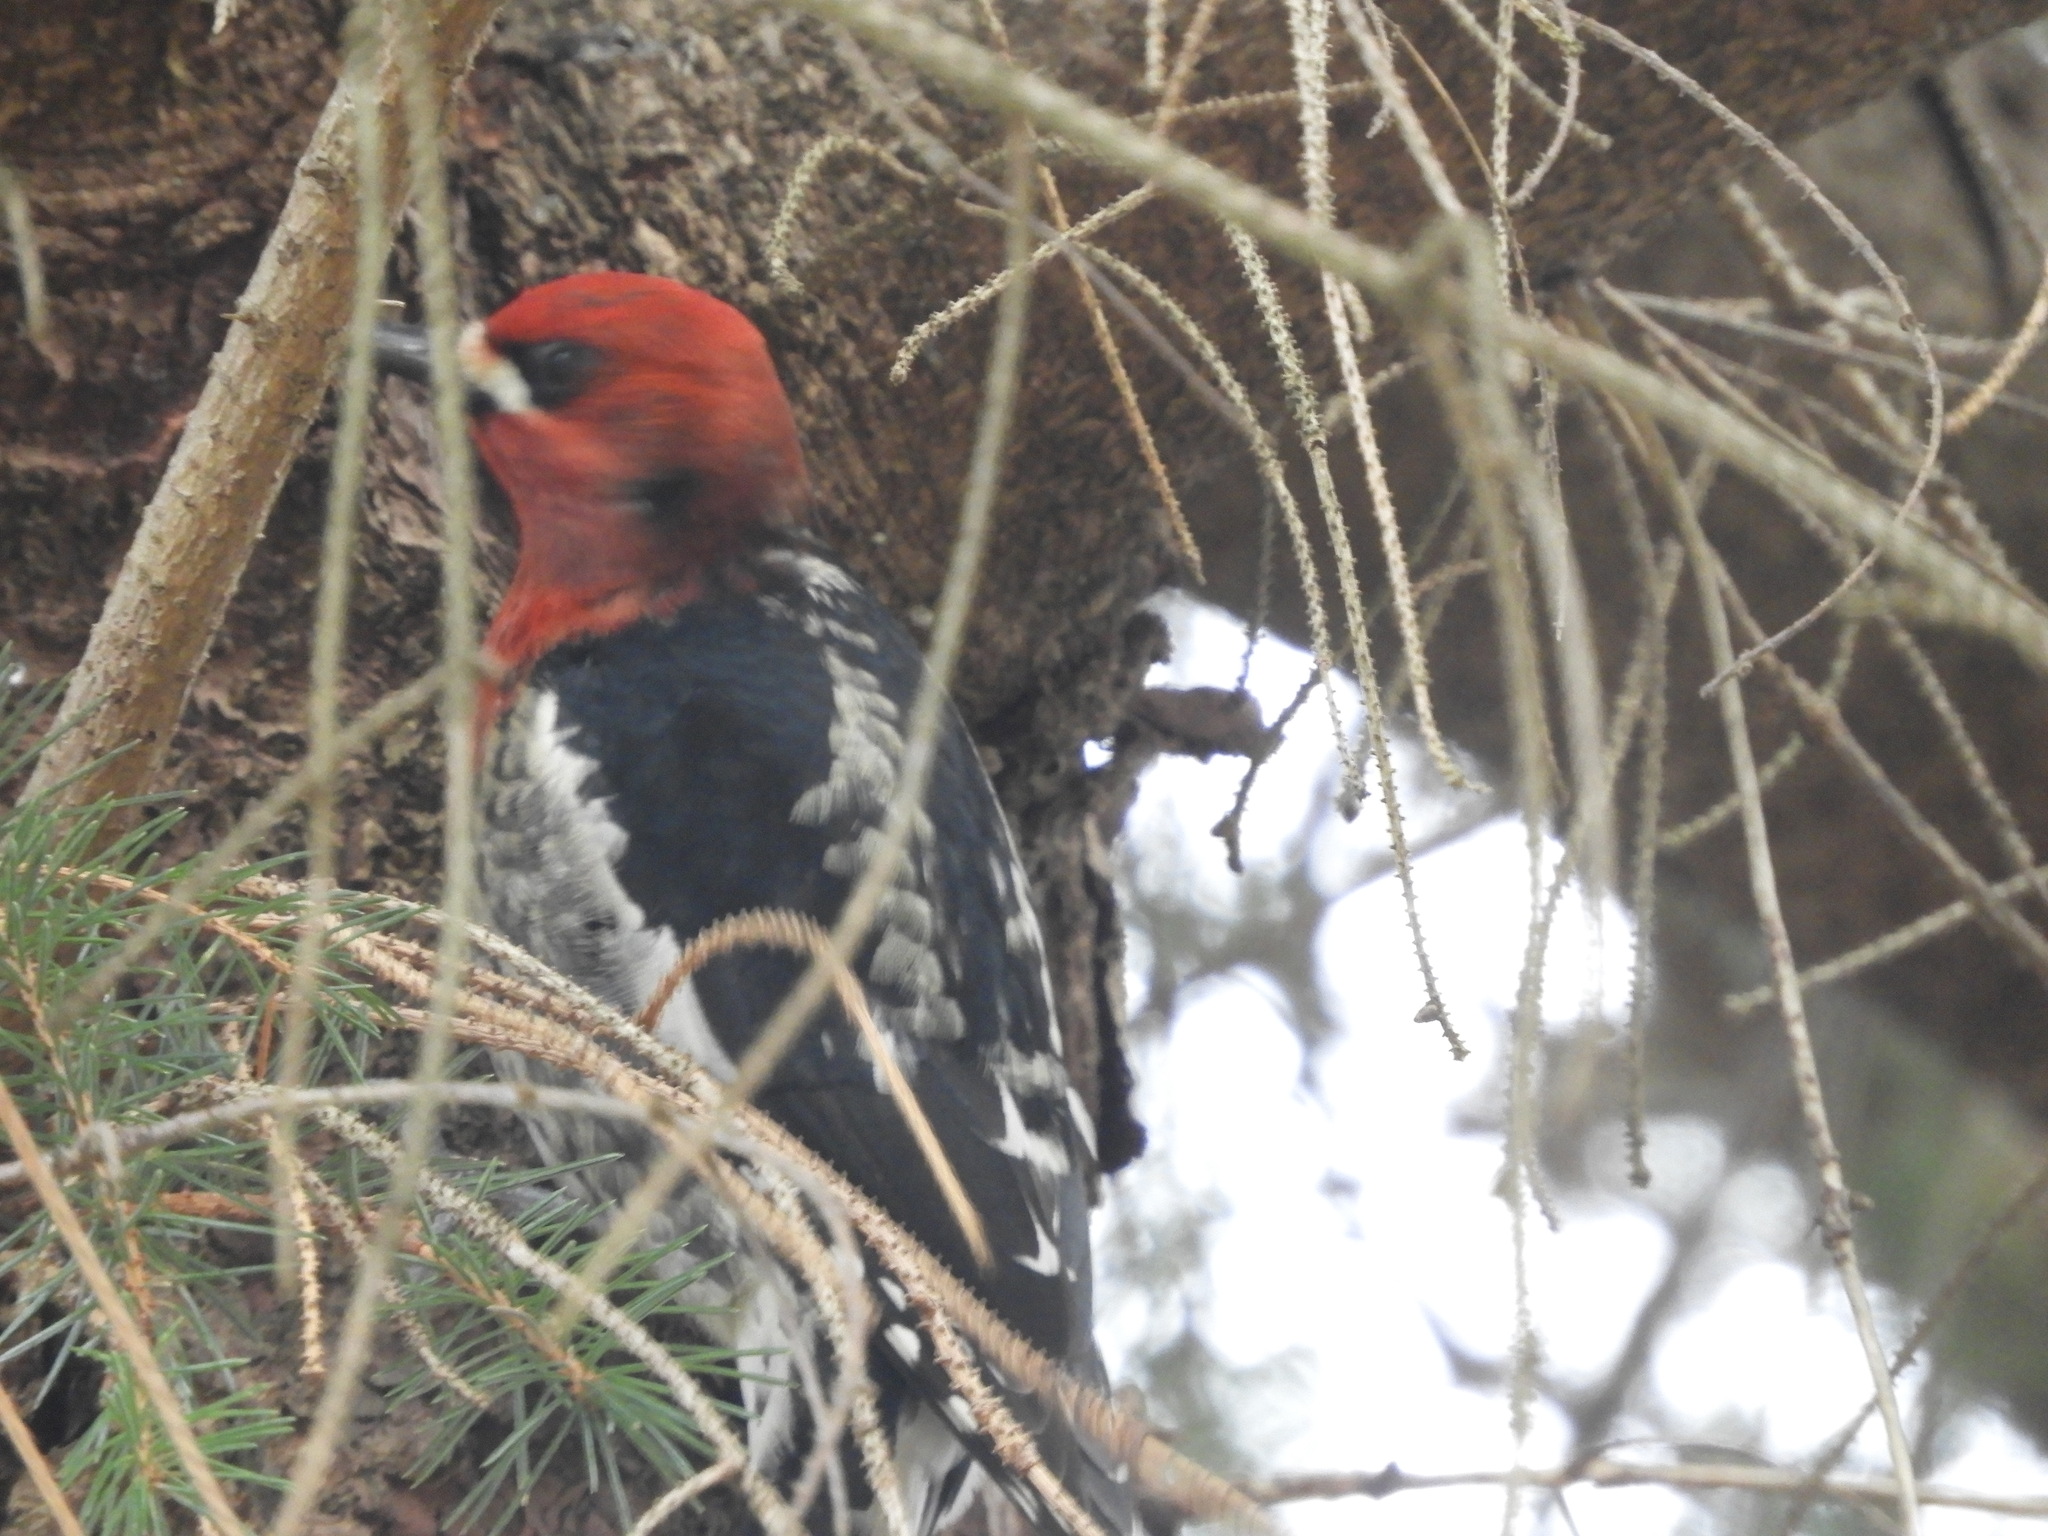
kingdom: Animalia
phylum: Chordata
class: Aves
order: Piciformes
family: Picidae
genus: Sphyrapicus
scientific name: Sphyrapicus ruber
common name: Red-breasted sapsucker
